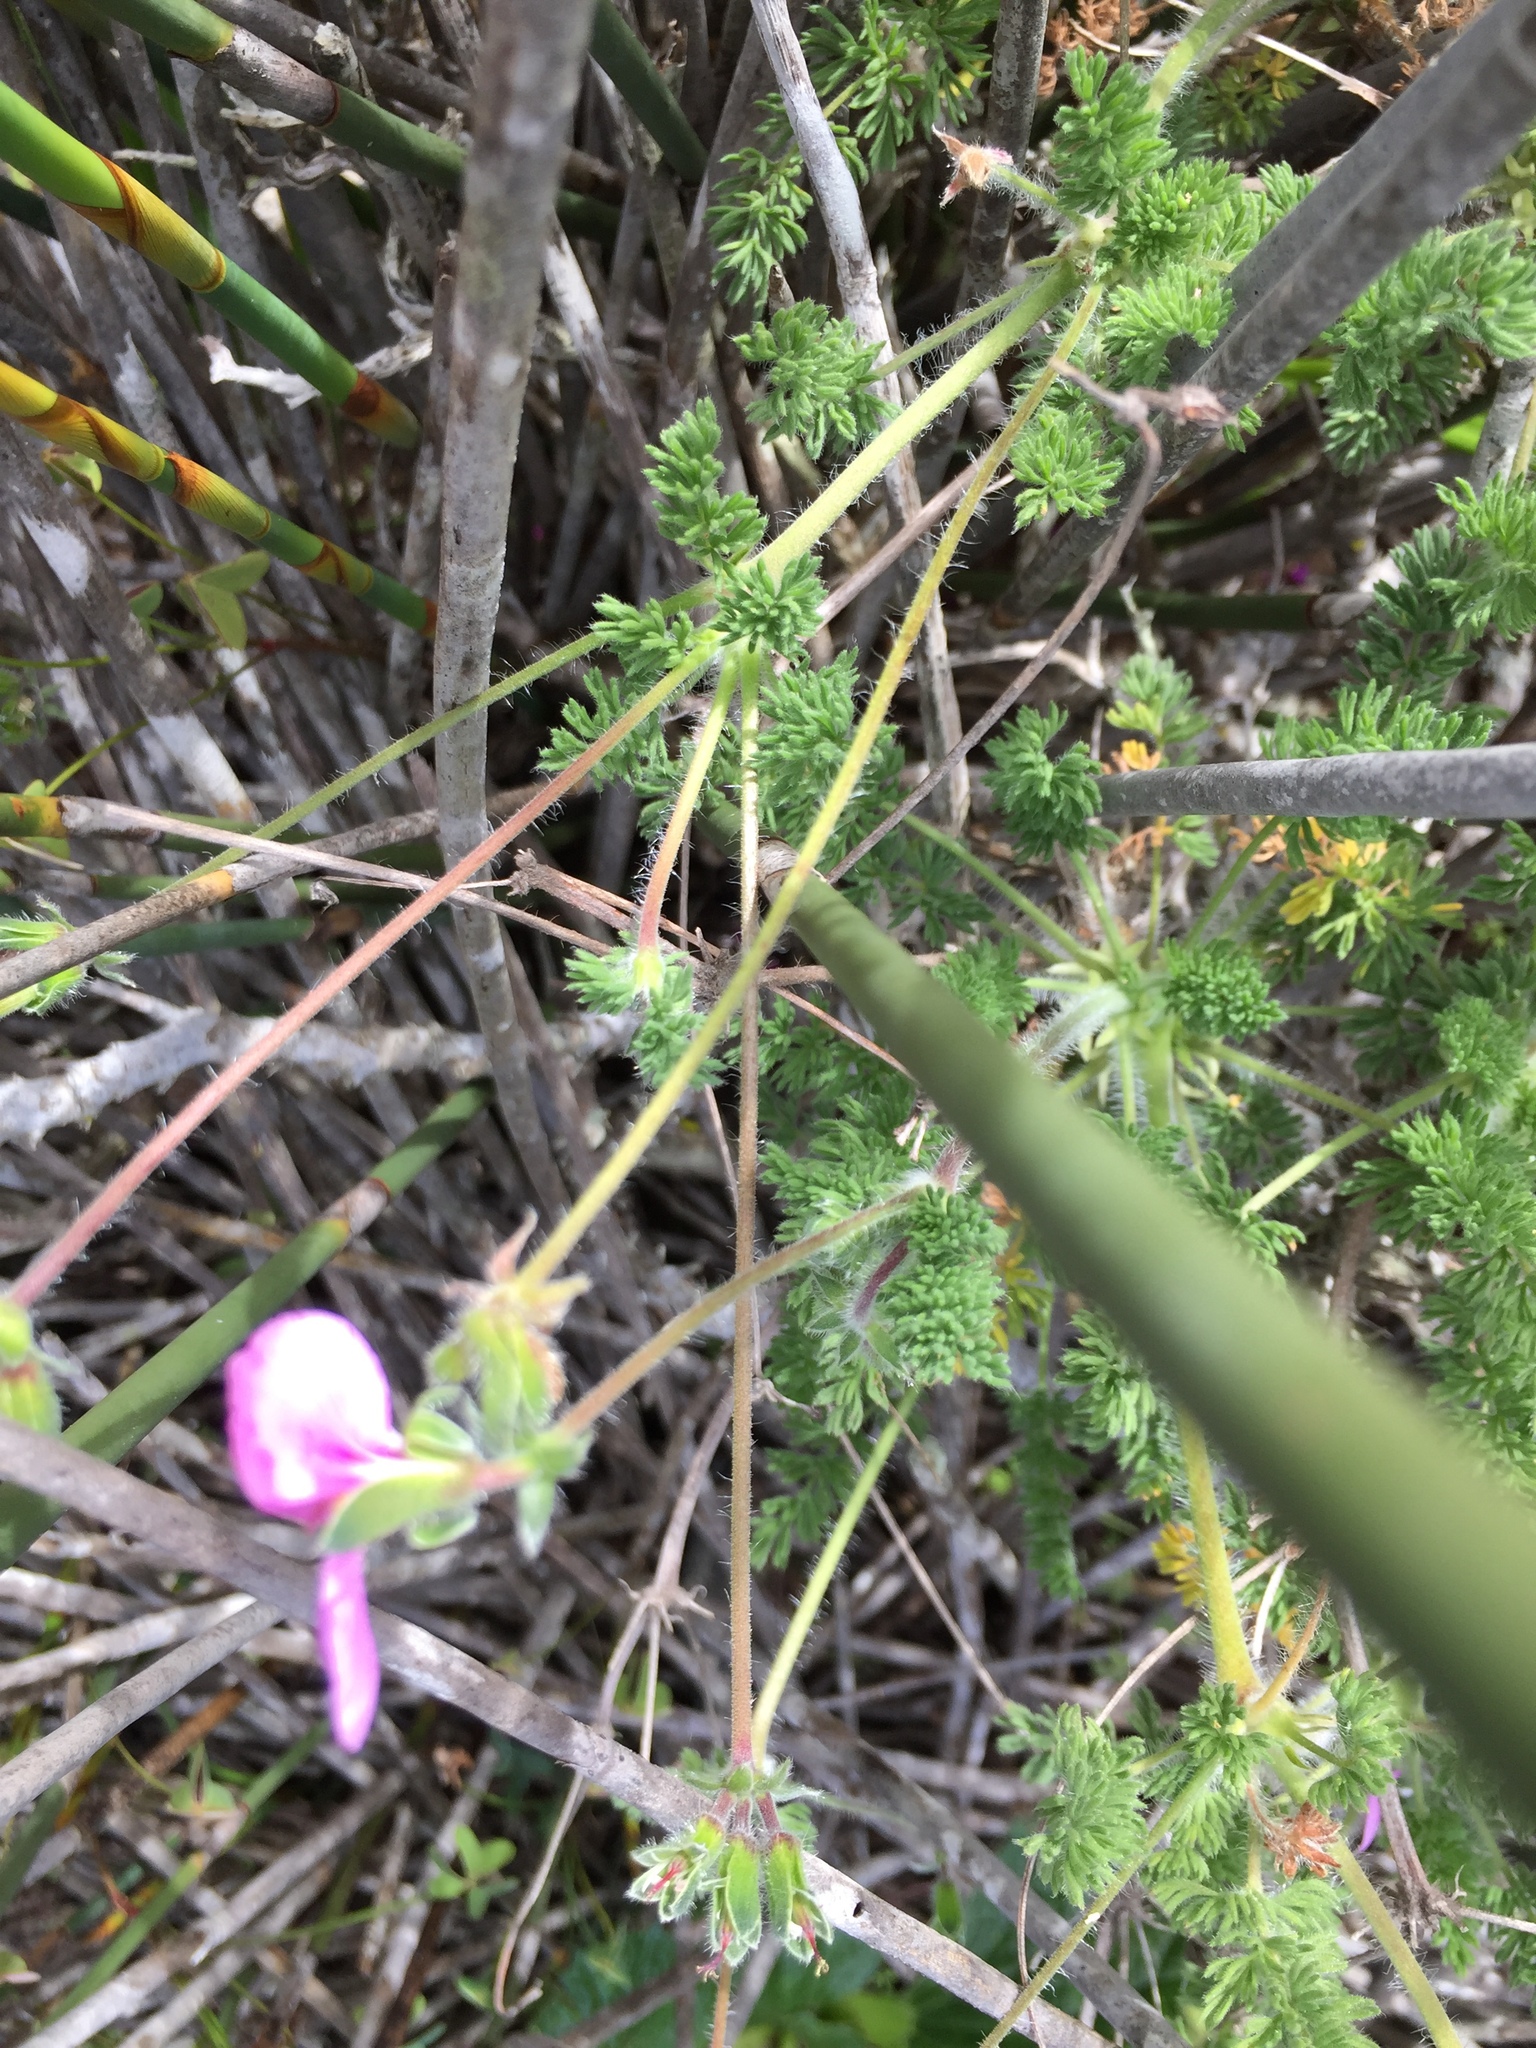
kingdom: Plantae
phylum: Tracheophyta
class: Magnoliopsida
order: Geraniales
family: Geraniaceae
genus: Pelargonium
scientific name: Pelargonium hirtum
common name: Fine-leaf pelargonium
